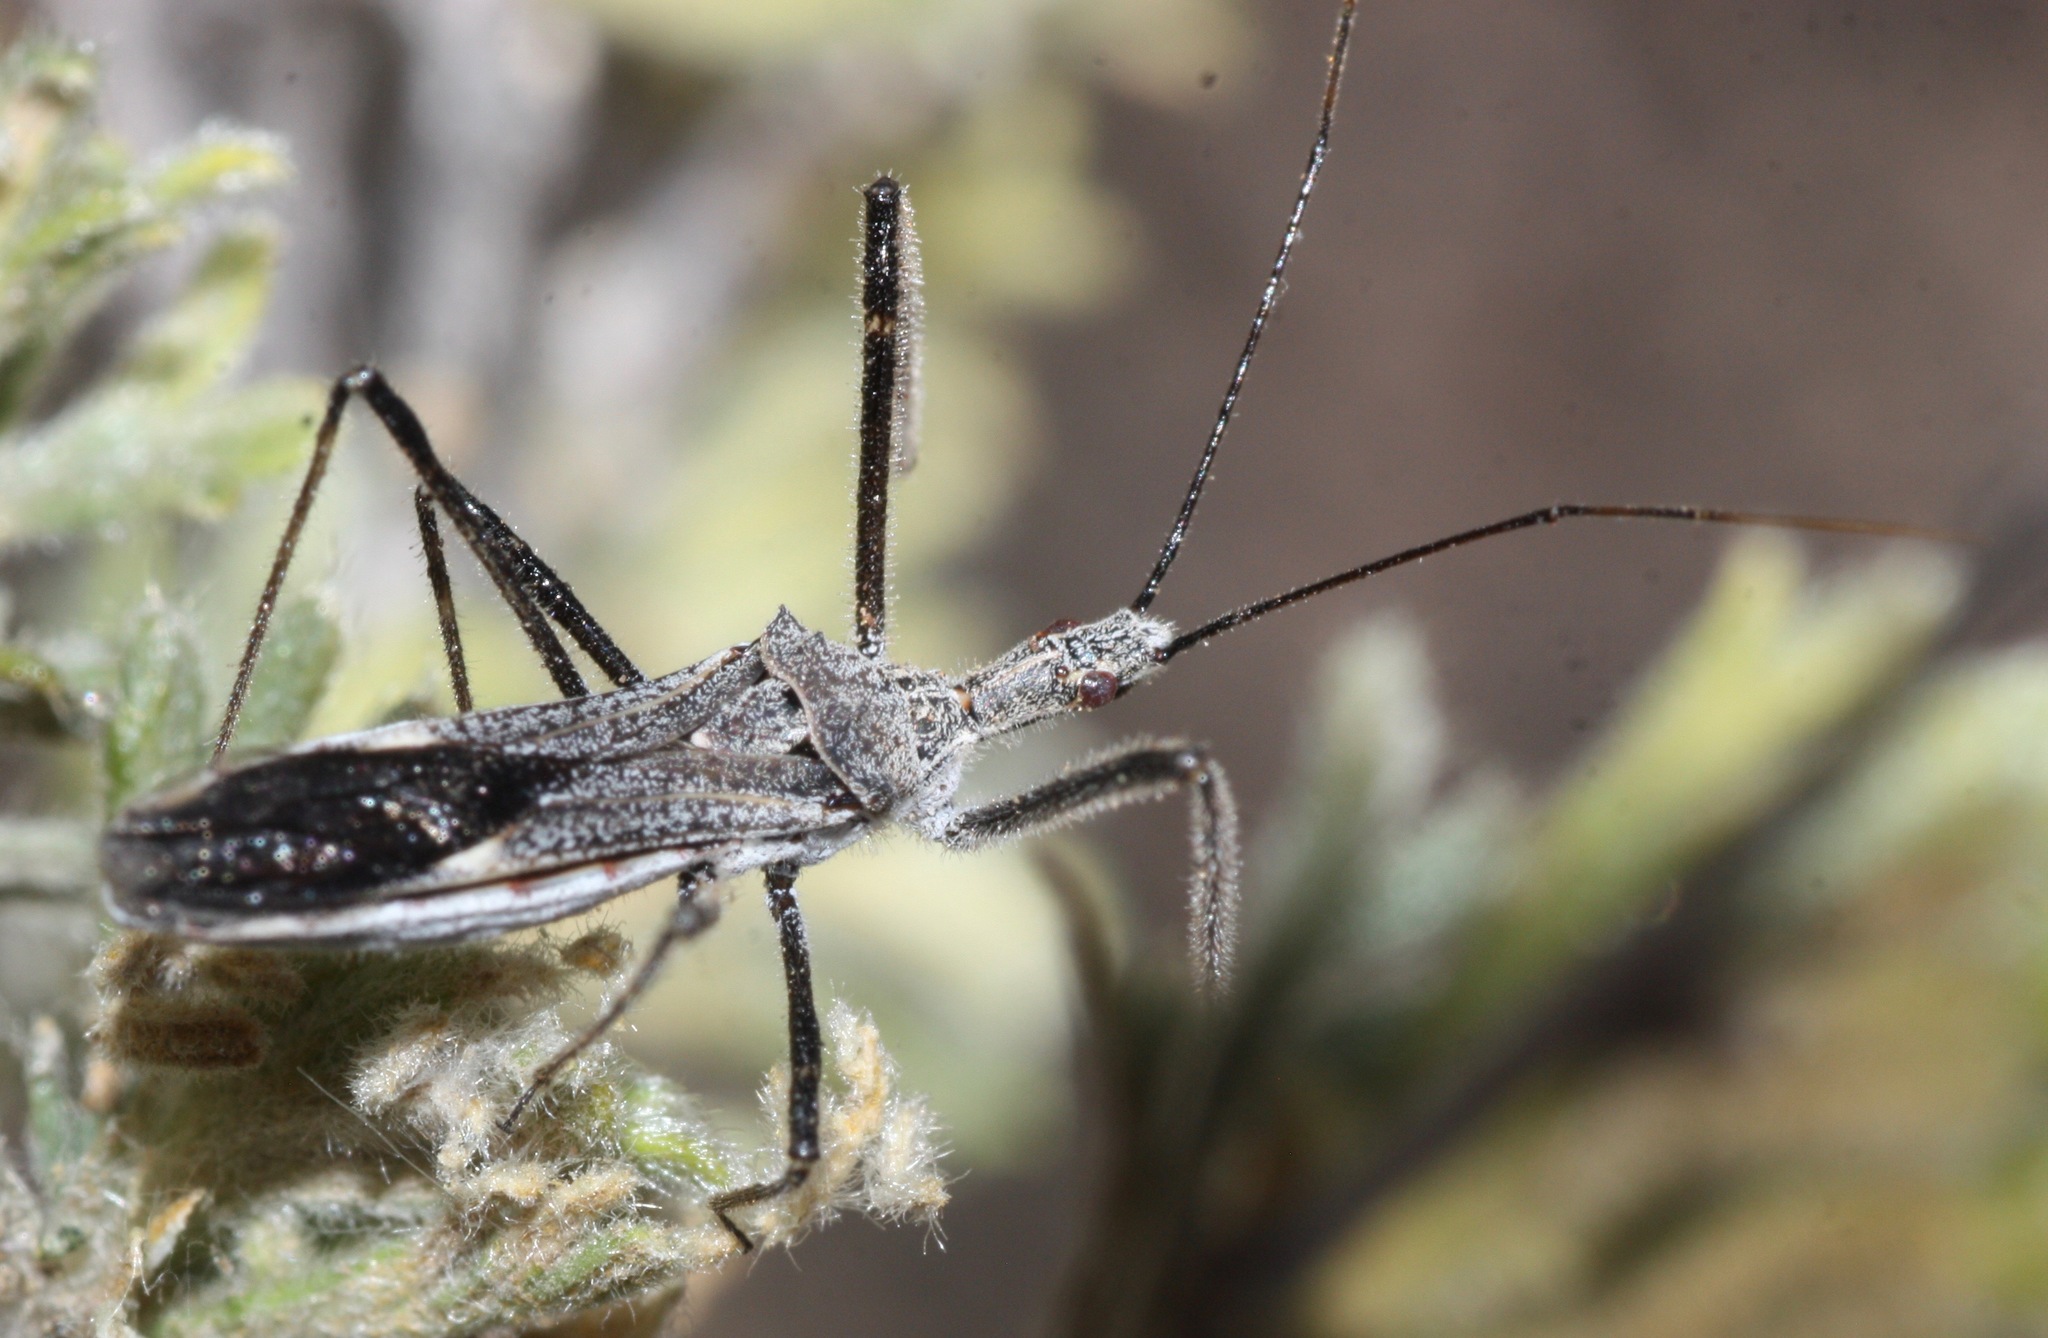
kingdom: Animalia
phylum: Arthropoda
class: Insecta
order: Hemiptera
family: Reduviidae
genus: Zelus
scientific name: Zelus tetracanthus
